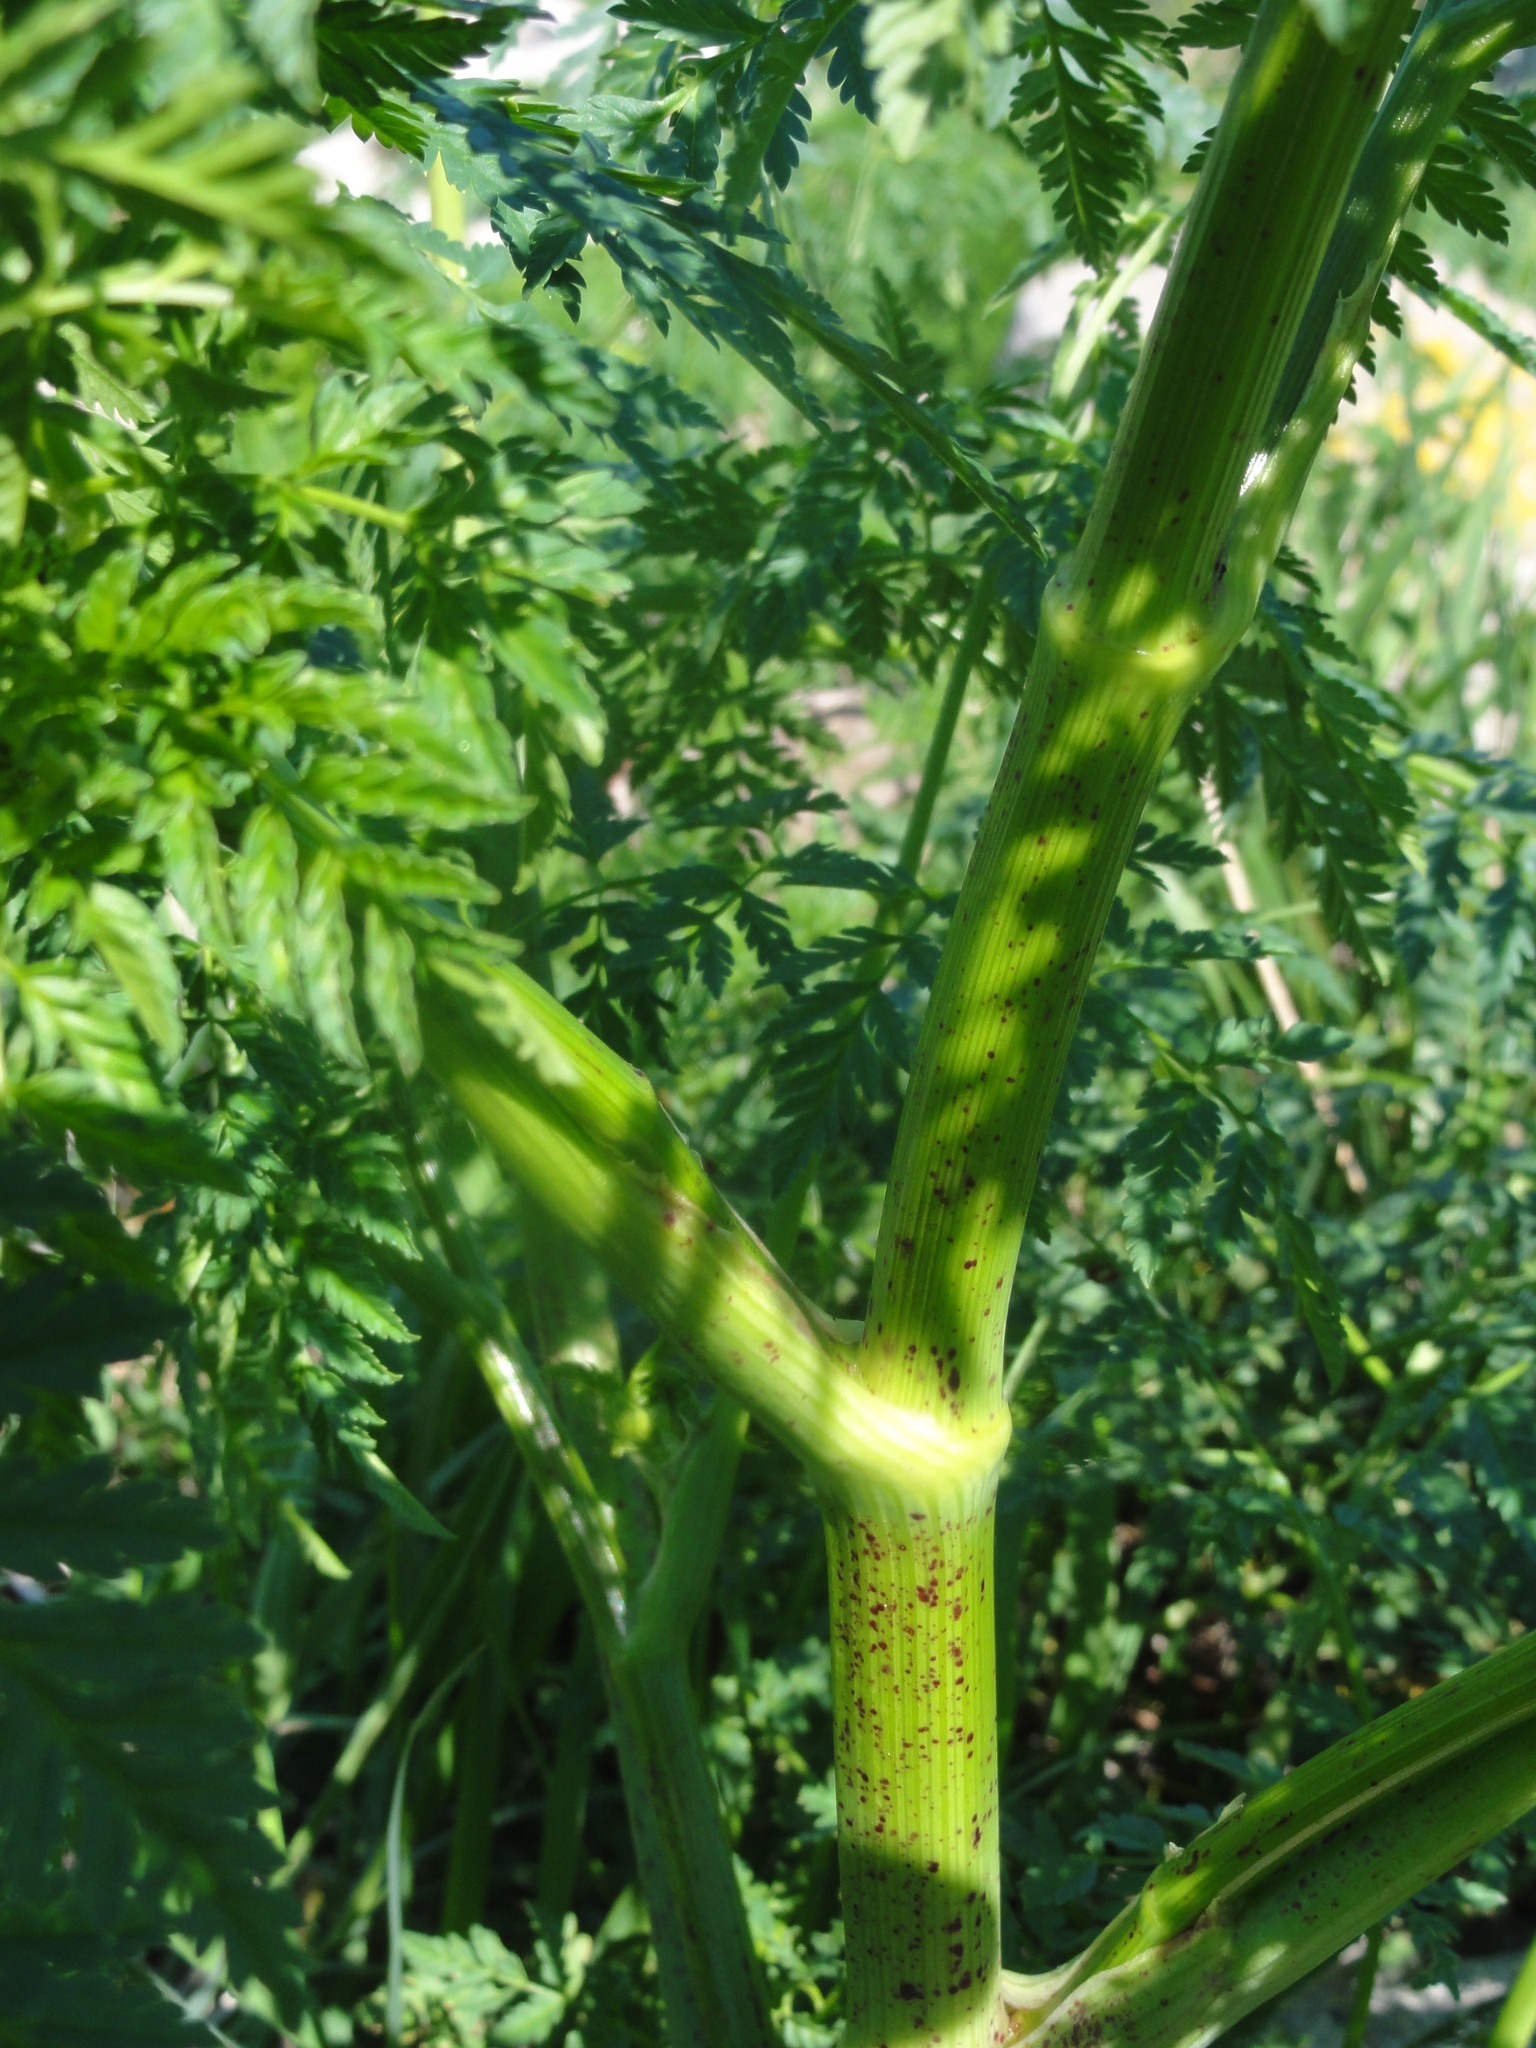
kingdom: Plantae
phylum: Tracheophyta
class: Magnoliopsida
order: Apiales
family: Apiaceae
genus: Conium
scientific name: Conium maculatum
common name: Hemlock
